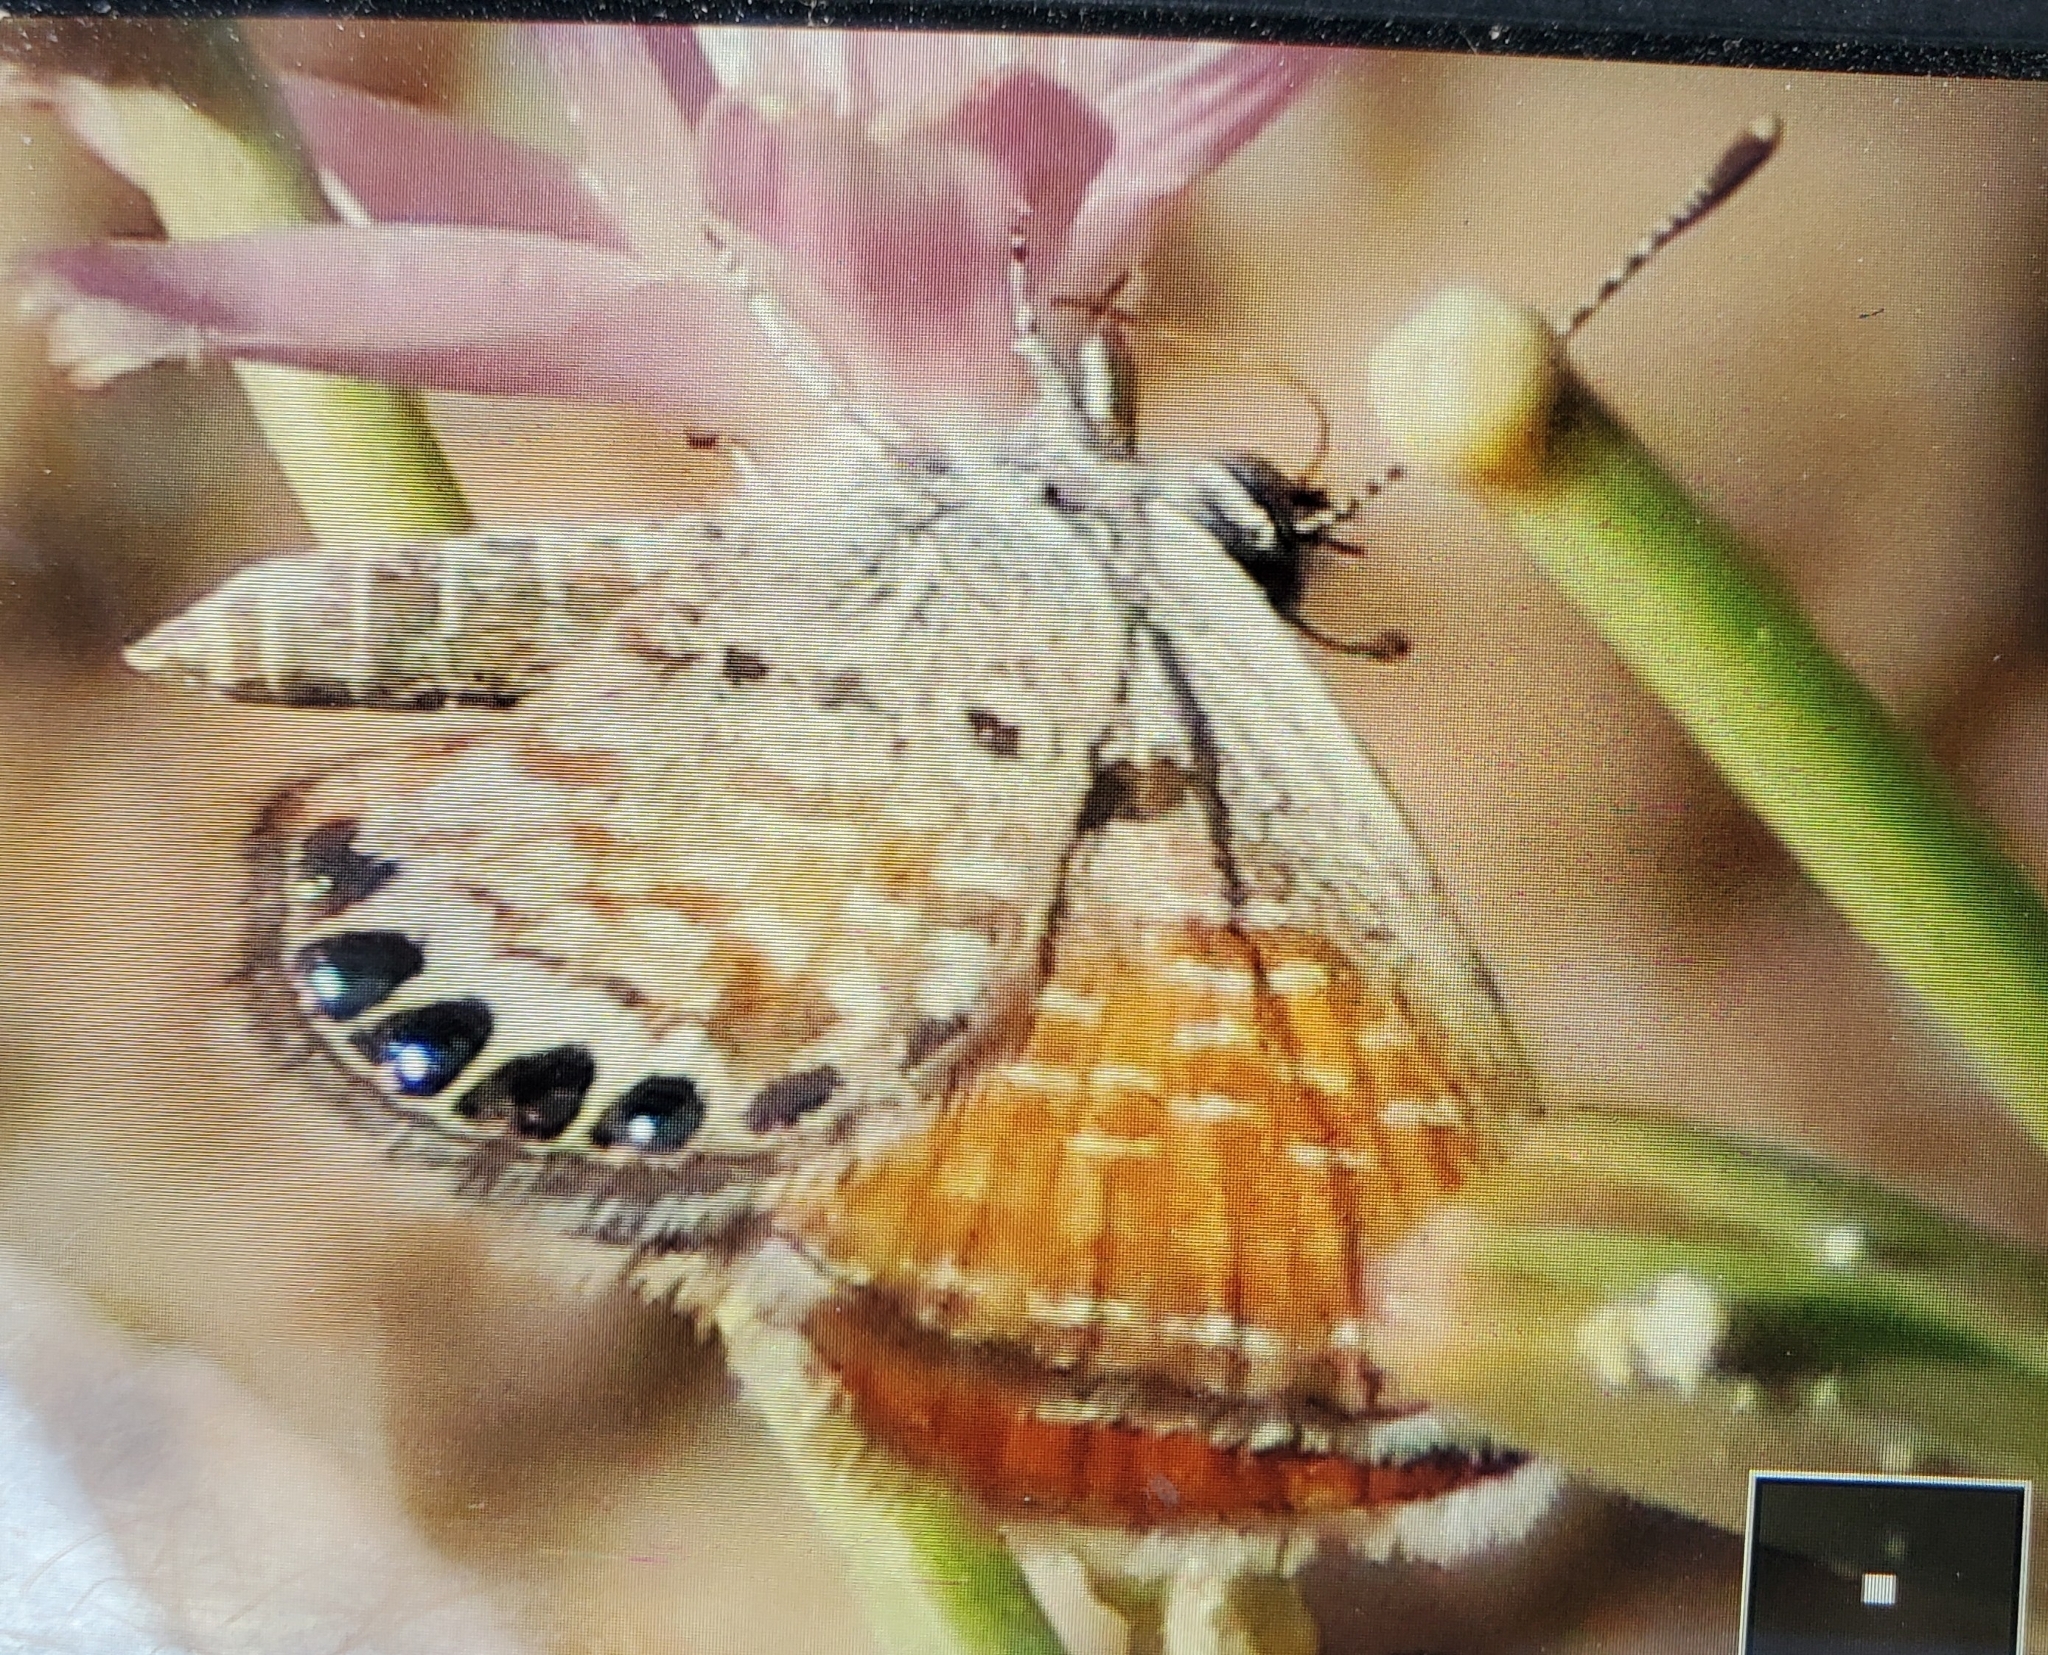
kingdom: Animalia
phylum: Arthropoda
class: Insecta
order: Lepidoptera
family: Lycaenidae
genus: Brephidium
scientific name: Brephidium exilis
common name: Pygmy blue
